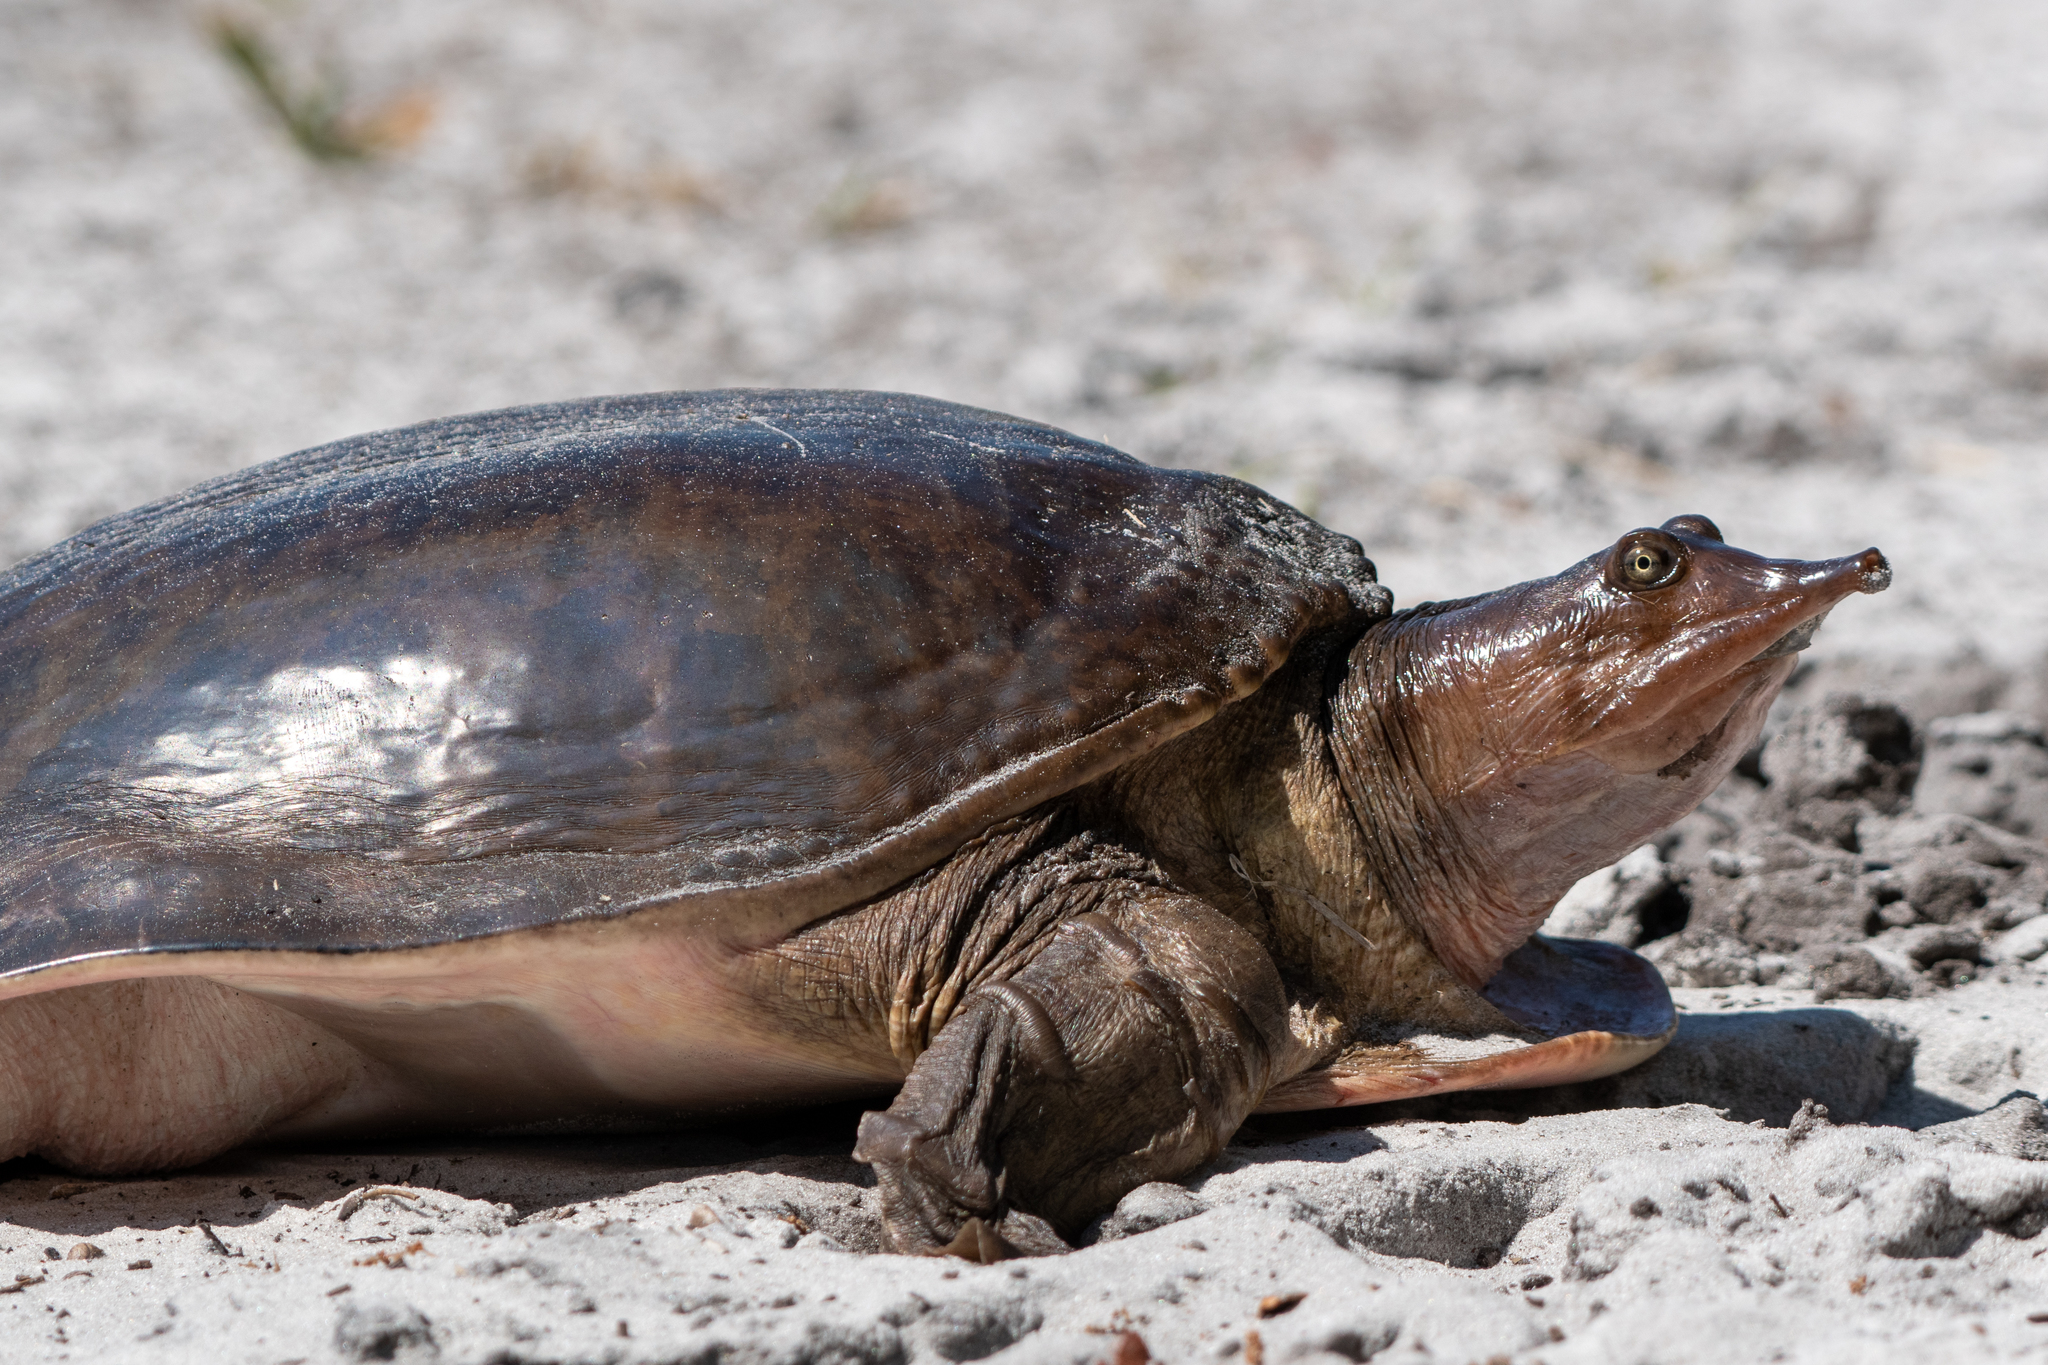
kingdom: Animalia
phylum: Chordata
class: Testudines
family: Trionychidae
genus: Apalone
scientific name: Apalone ferox
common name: Florida softshell turtle
